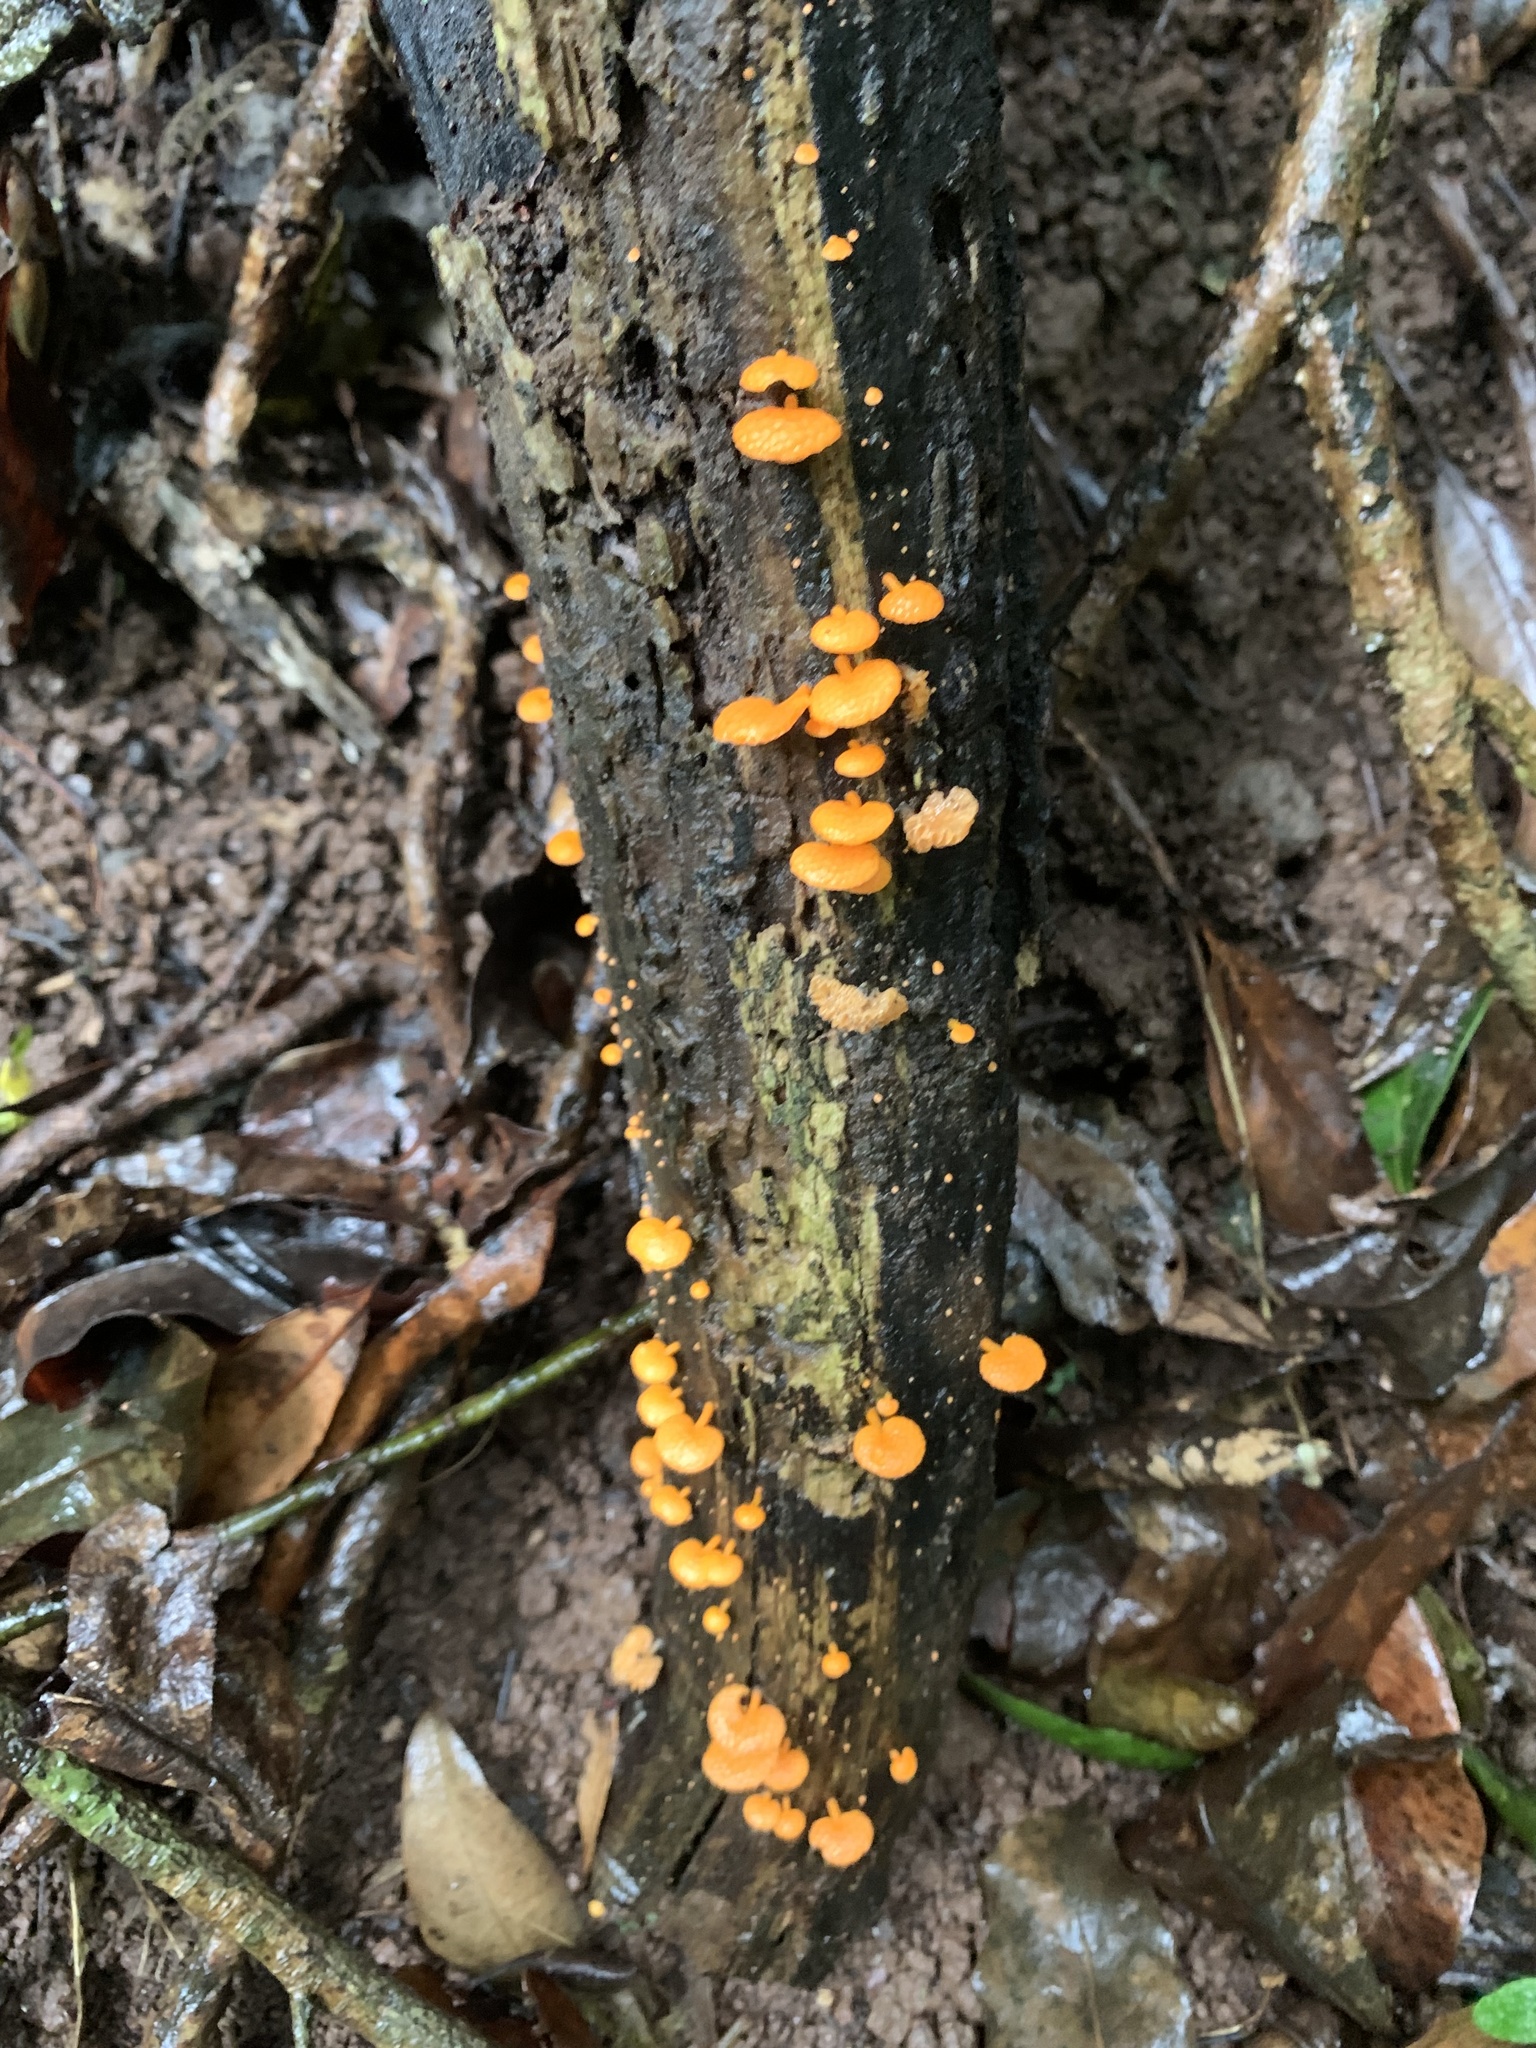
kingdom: Fungi
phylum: Basidiomycota
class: Agaricomycetes
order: Agaricales
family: Mycenaceae
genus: Favolaschia
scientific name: Favolaschia claudopus
